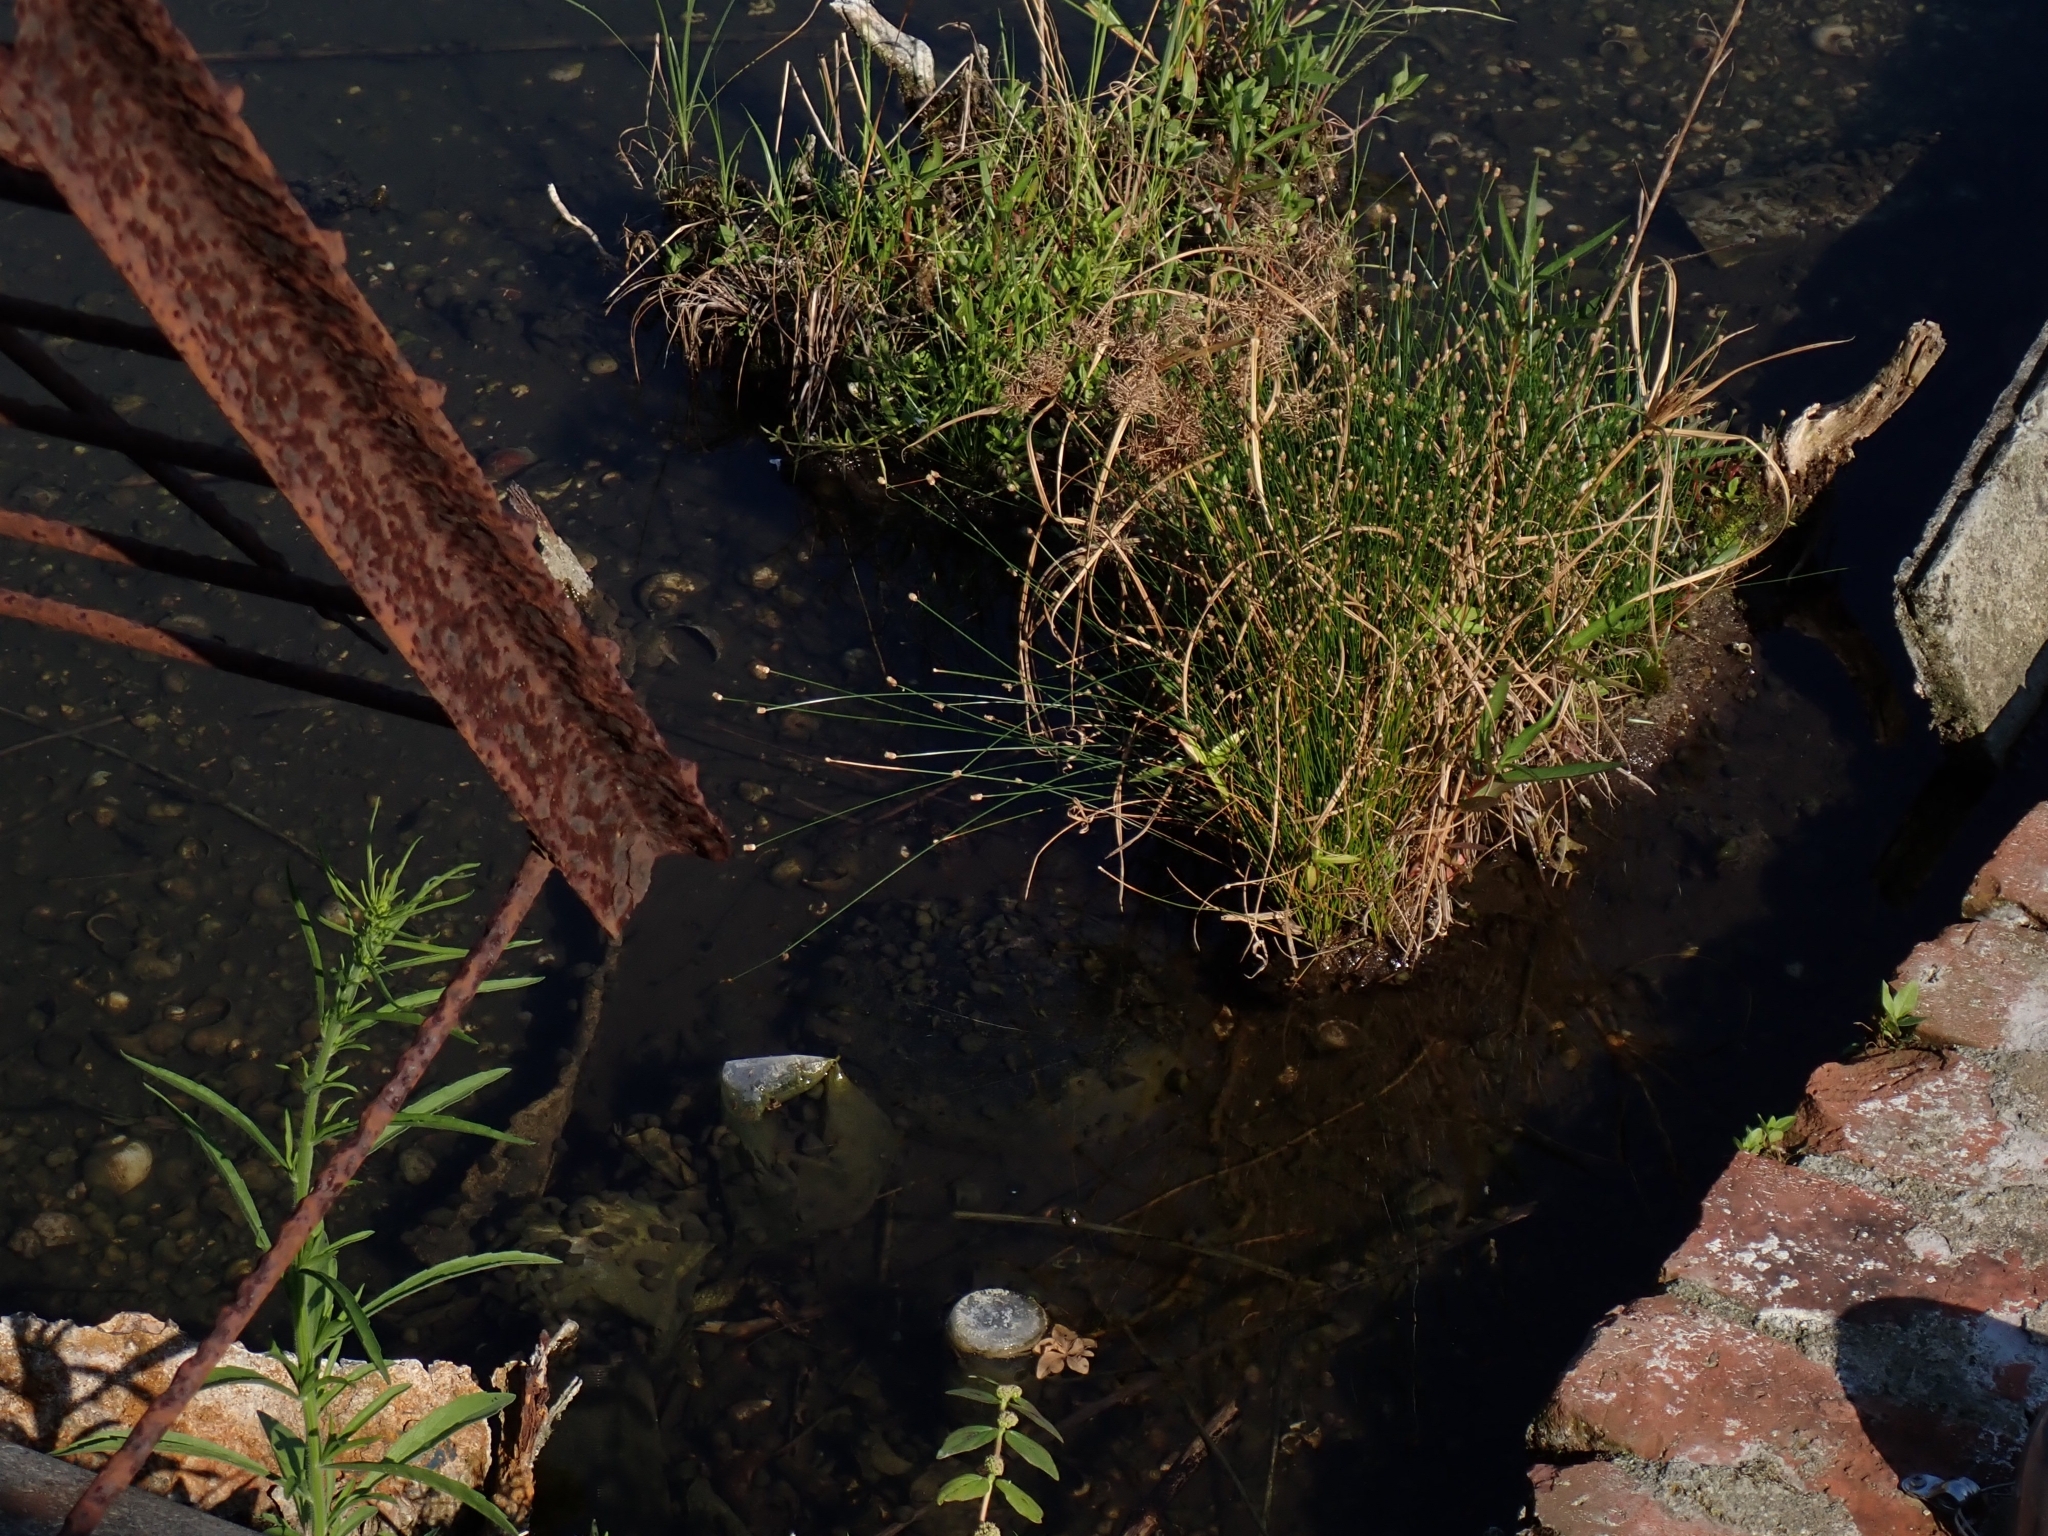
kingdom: Plantae
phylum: Tracheophyta
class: Liliopsida
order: Poales
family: Cyperaceae
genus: Eleocharis
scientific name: Eleocharis geniculata
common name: Canada spikesedge
